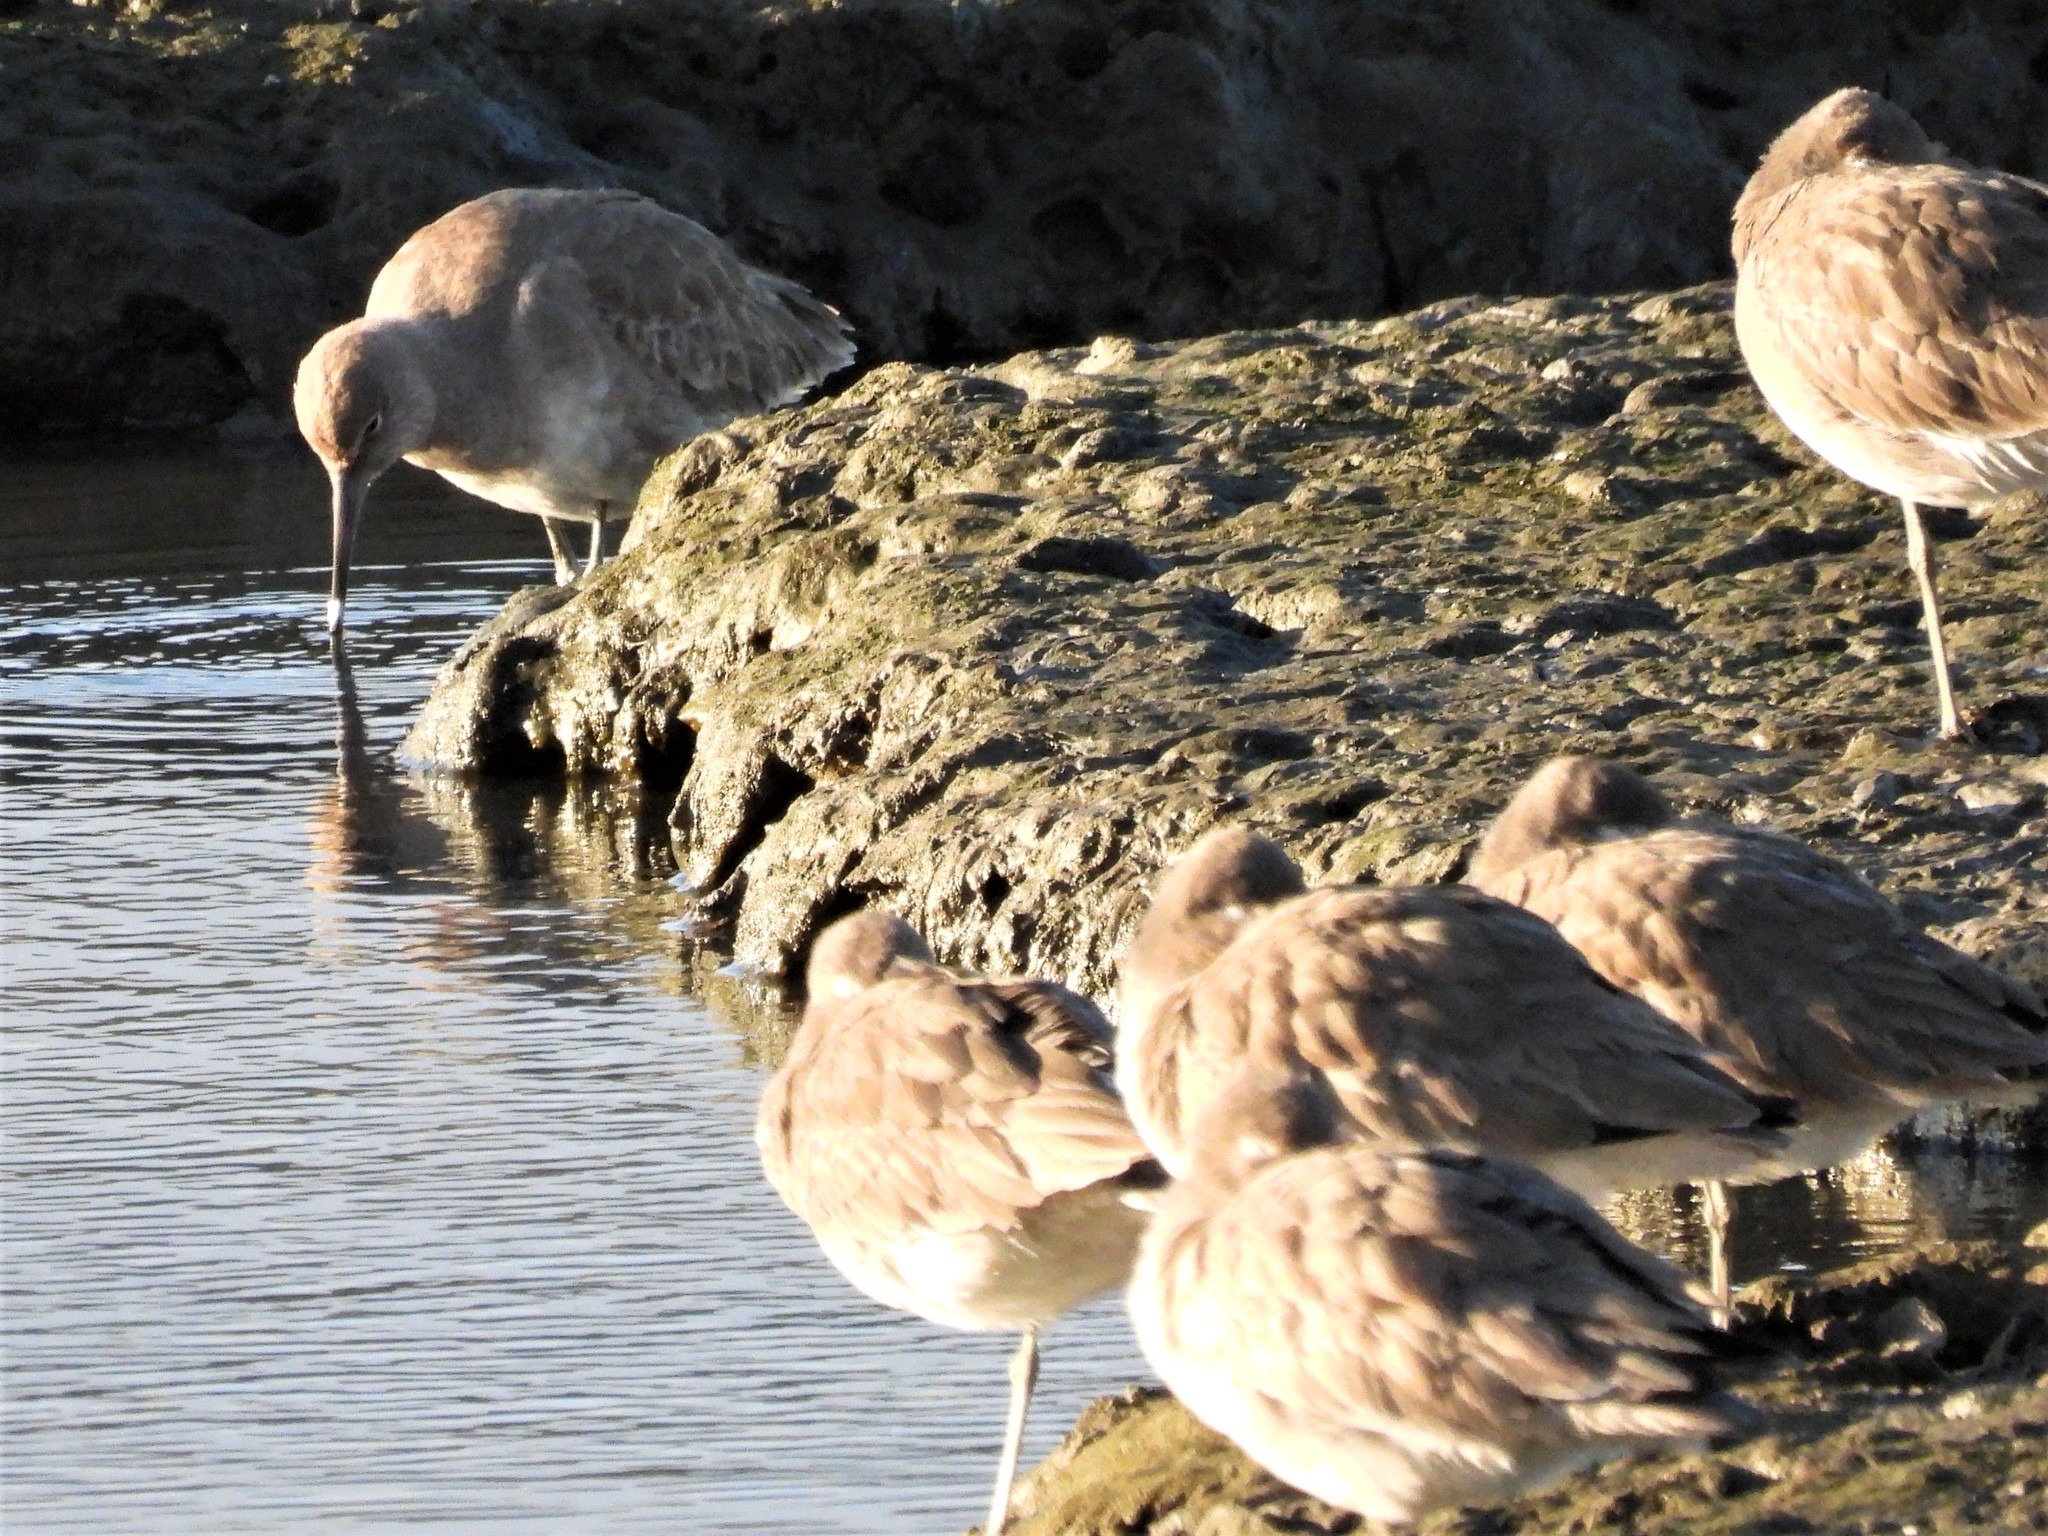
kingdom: Animalia
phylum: Chordata
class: Aves
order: Charadriiformes
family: Scolopacidae
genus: Tringa
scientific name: Tringa semipalmata
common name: Willet
